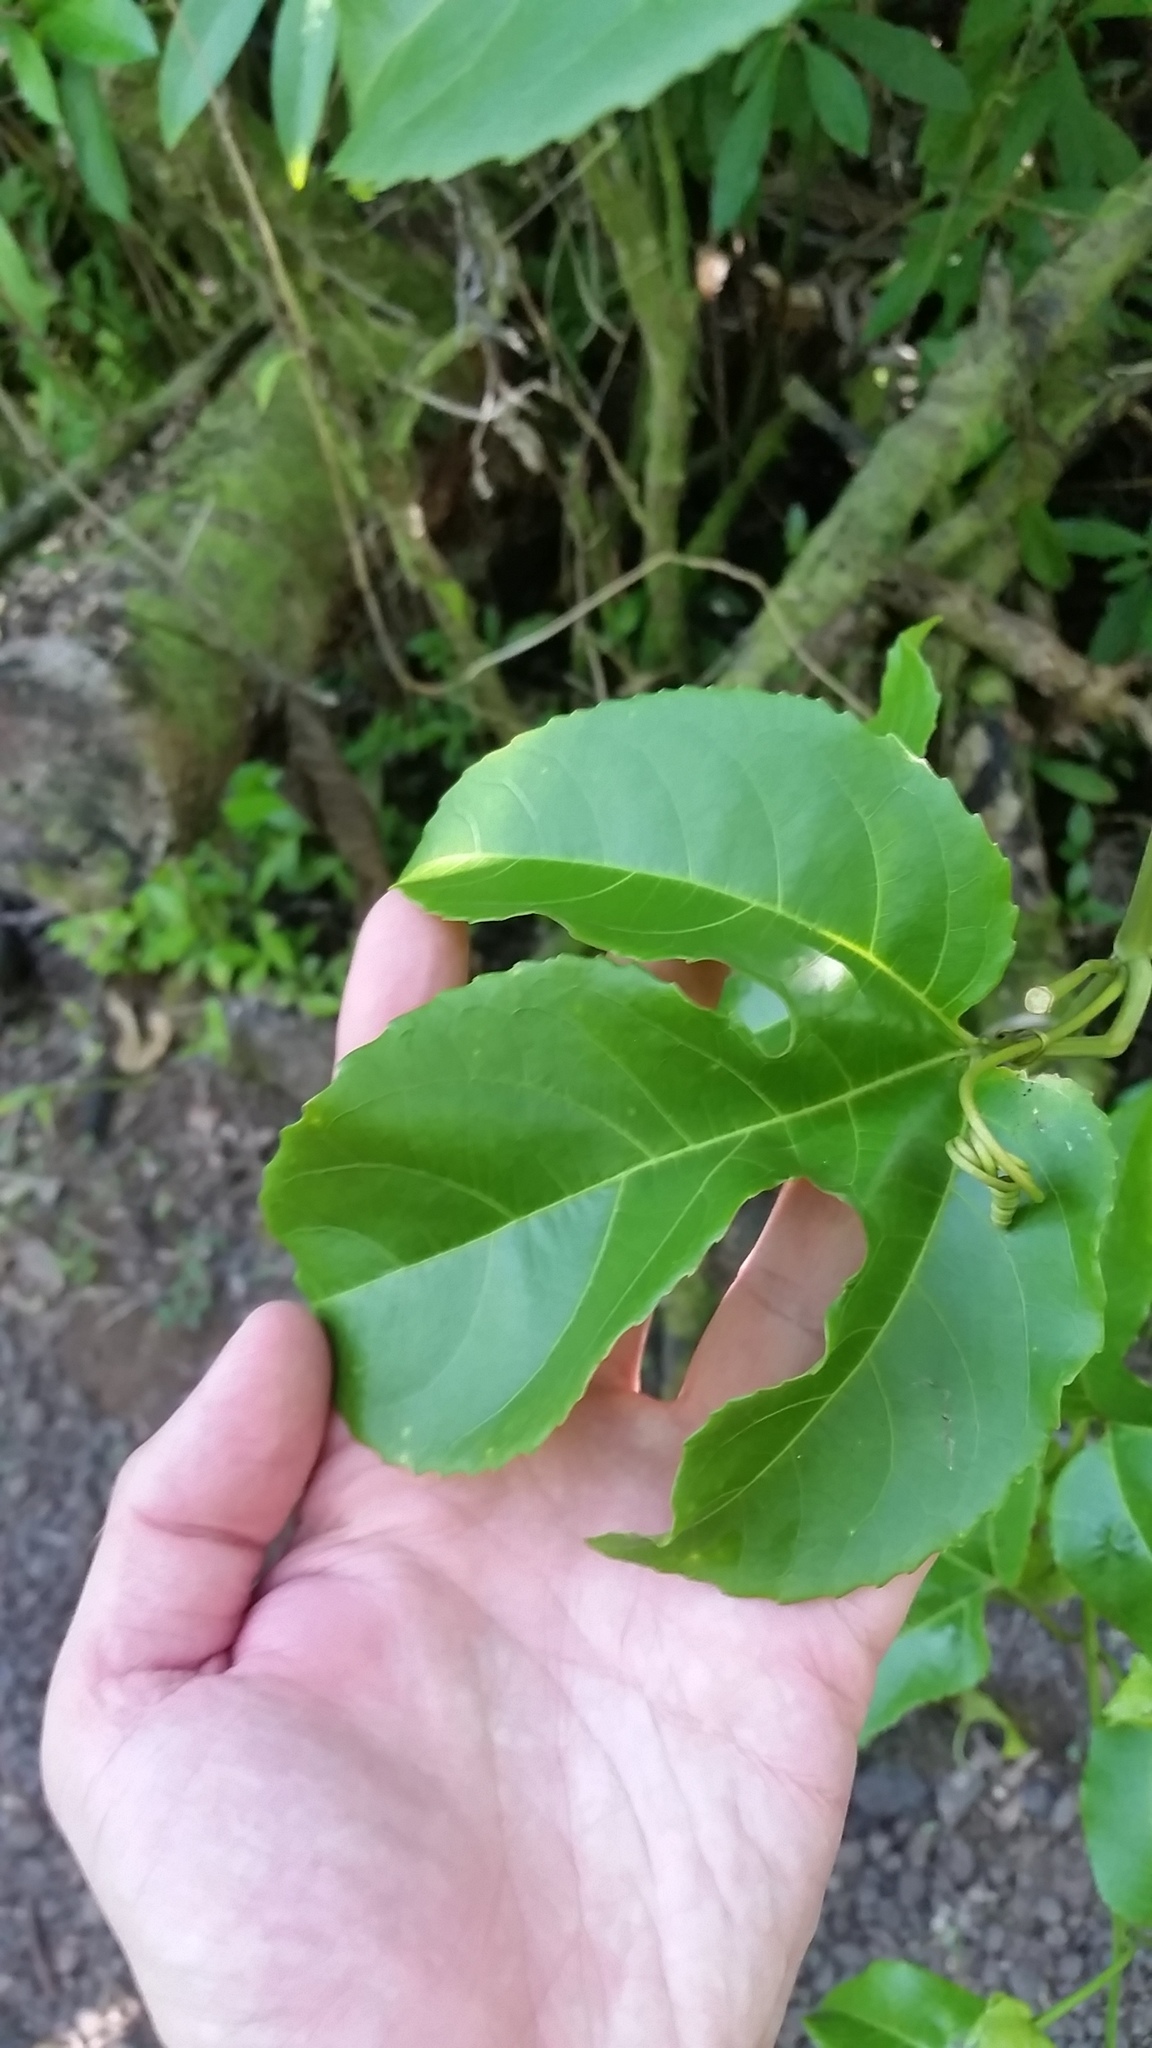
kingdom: Plantae
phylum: Tracheophyta
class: Magnoliopsida
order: Malpighiales
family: Passifloraceae
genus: Passiflora
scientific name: Passiflora edulis
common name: Purple granadilla
